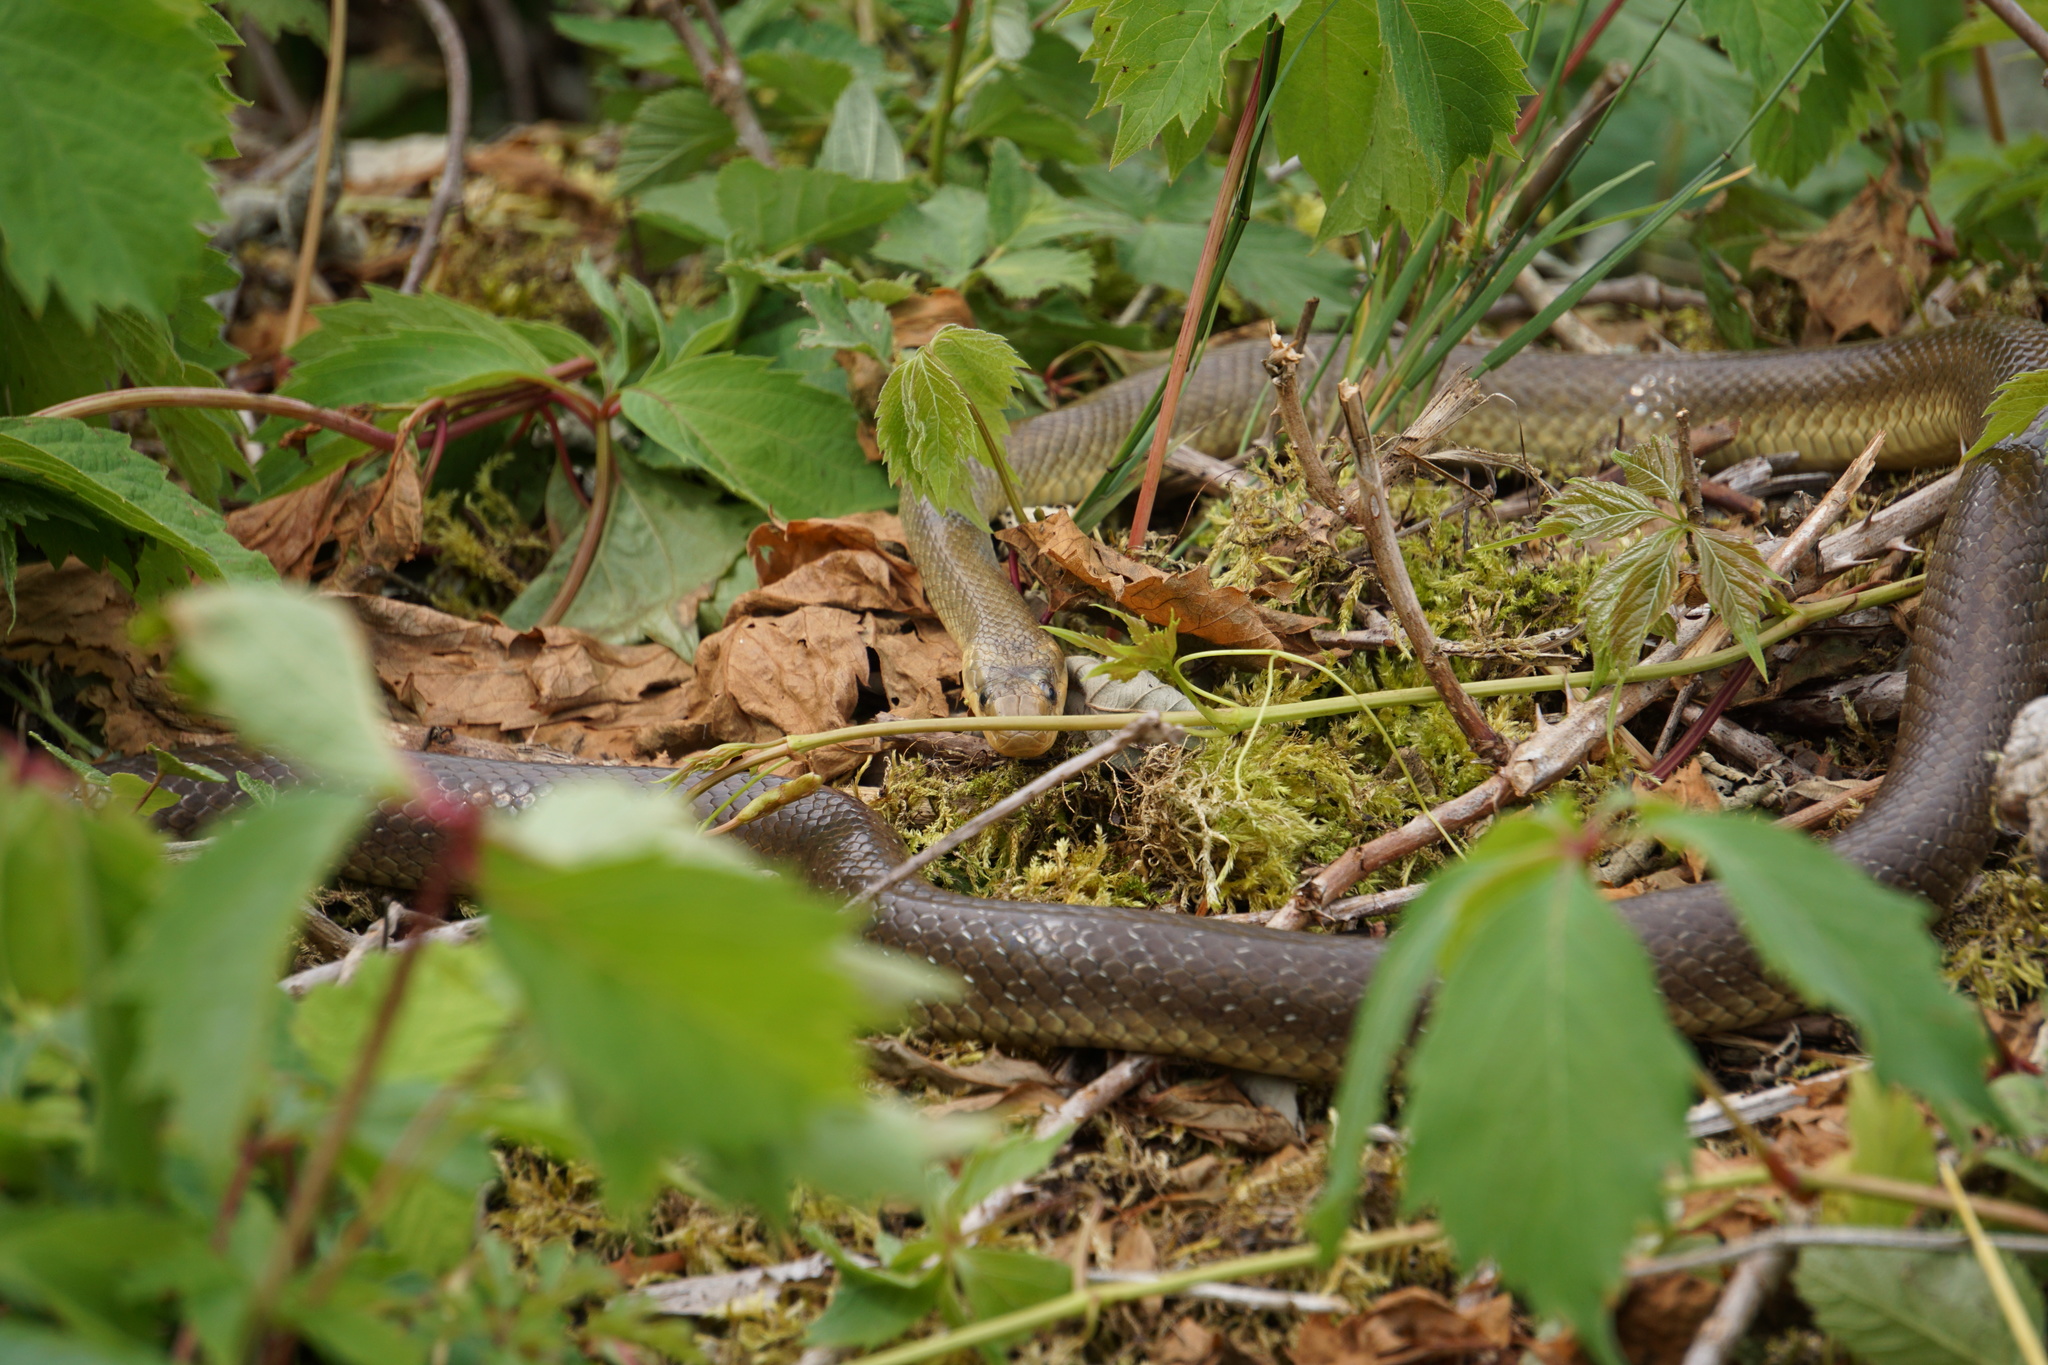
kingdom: Animalia
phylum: Chordata
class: Squamata
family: Colubridae
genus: Zamenis
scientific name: Zamenis longissimus
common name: Aesculapean snake
